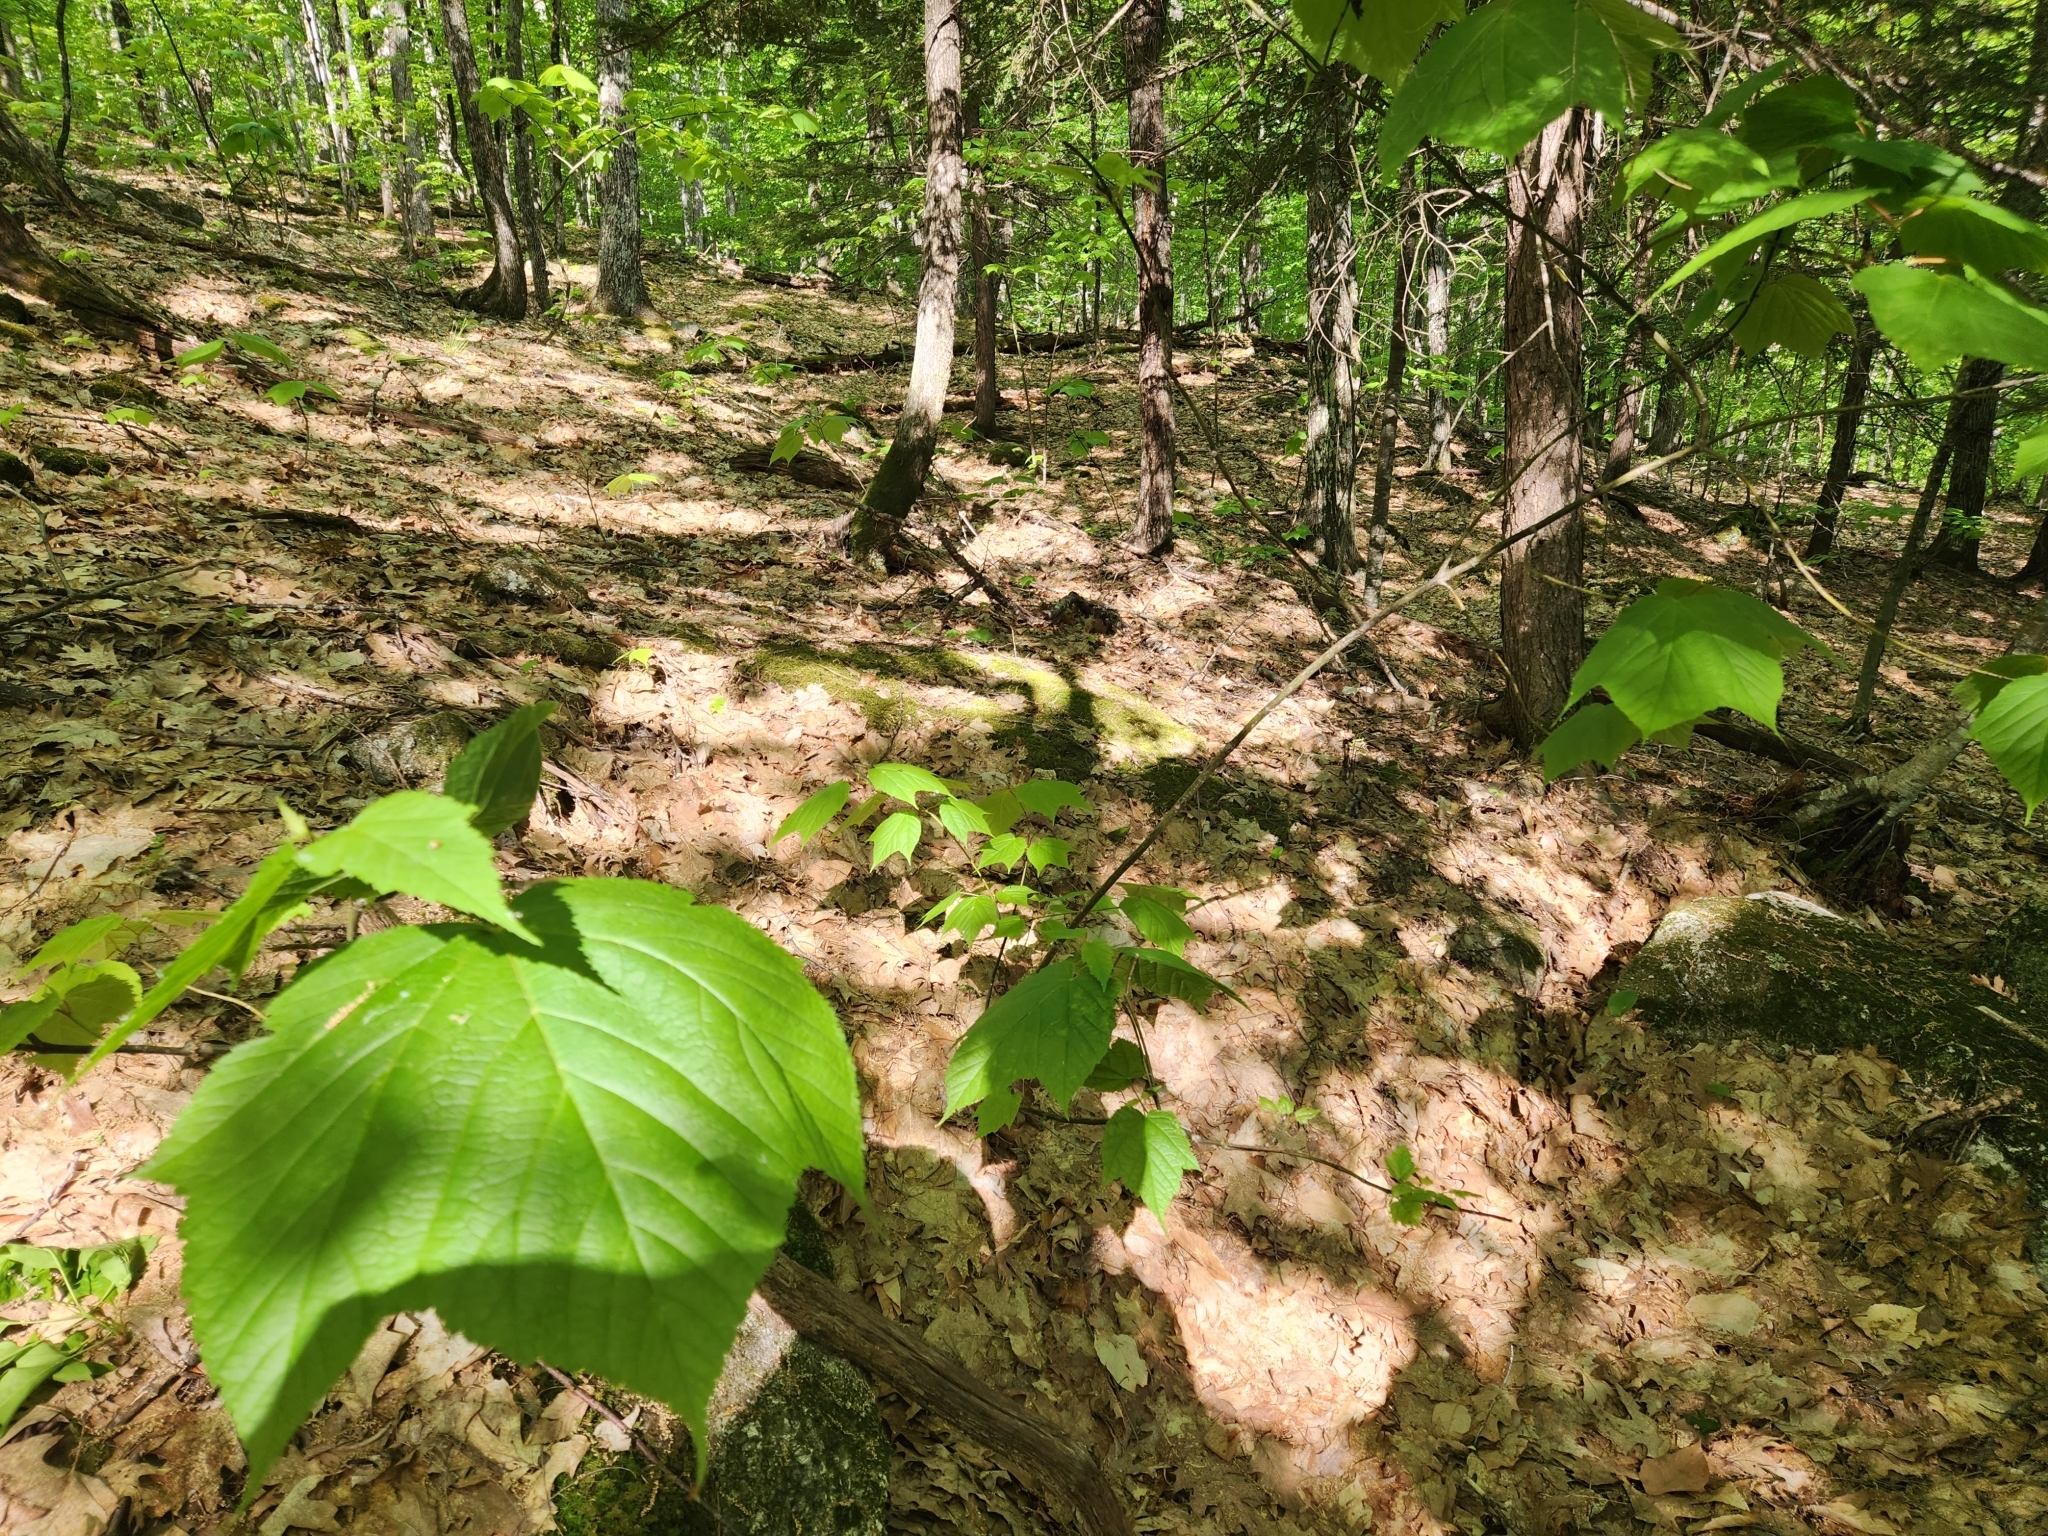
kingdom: Plantae
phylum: Tracheophyta
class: Magnoliopsida
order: Sapindales
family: Sapindaceae
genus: Acer
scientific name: Acer pensylvanicum
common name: Moosewood
